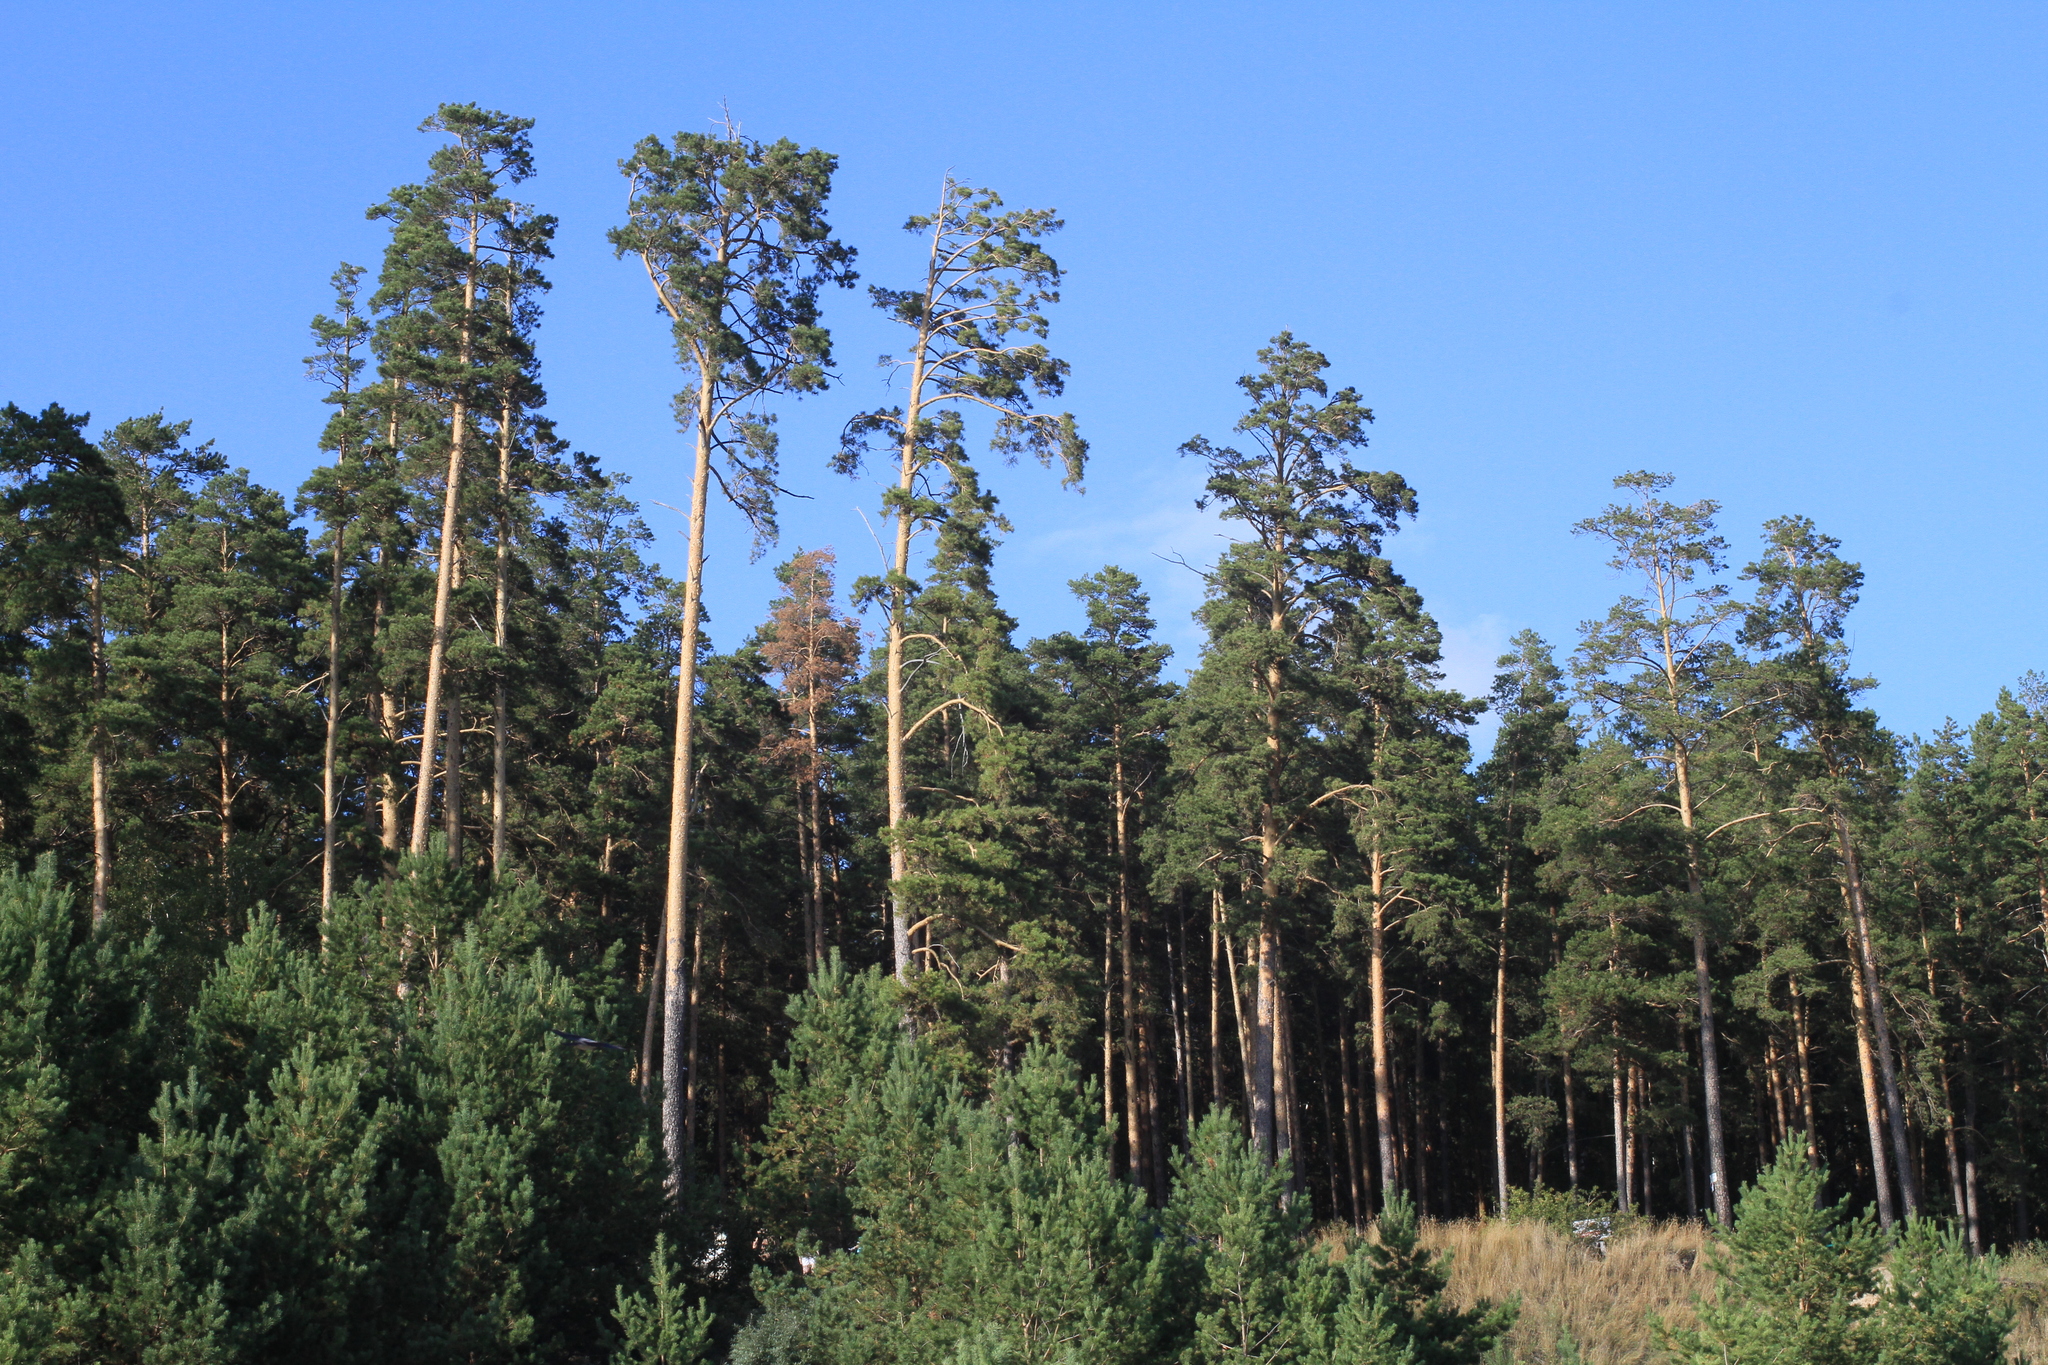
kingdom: Plantae
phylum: Tracheophyta
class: Pinopsida
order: Pinales
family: Pinaceae
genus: Pinus
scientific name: Pinus sylvestris
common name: Scots pine
